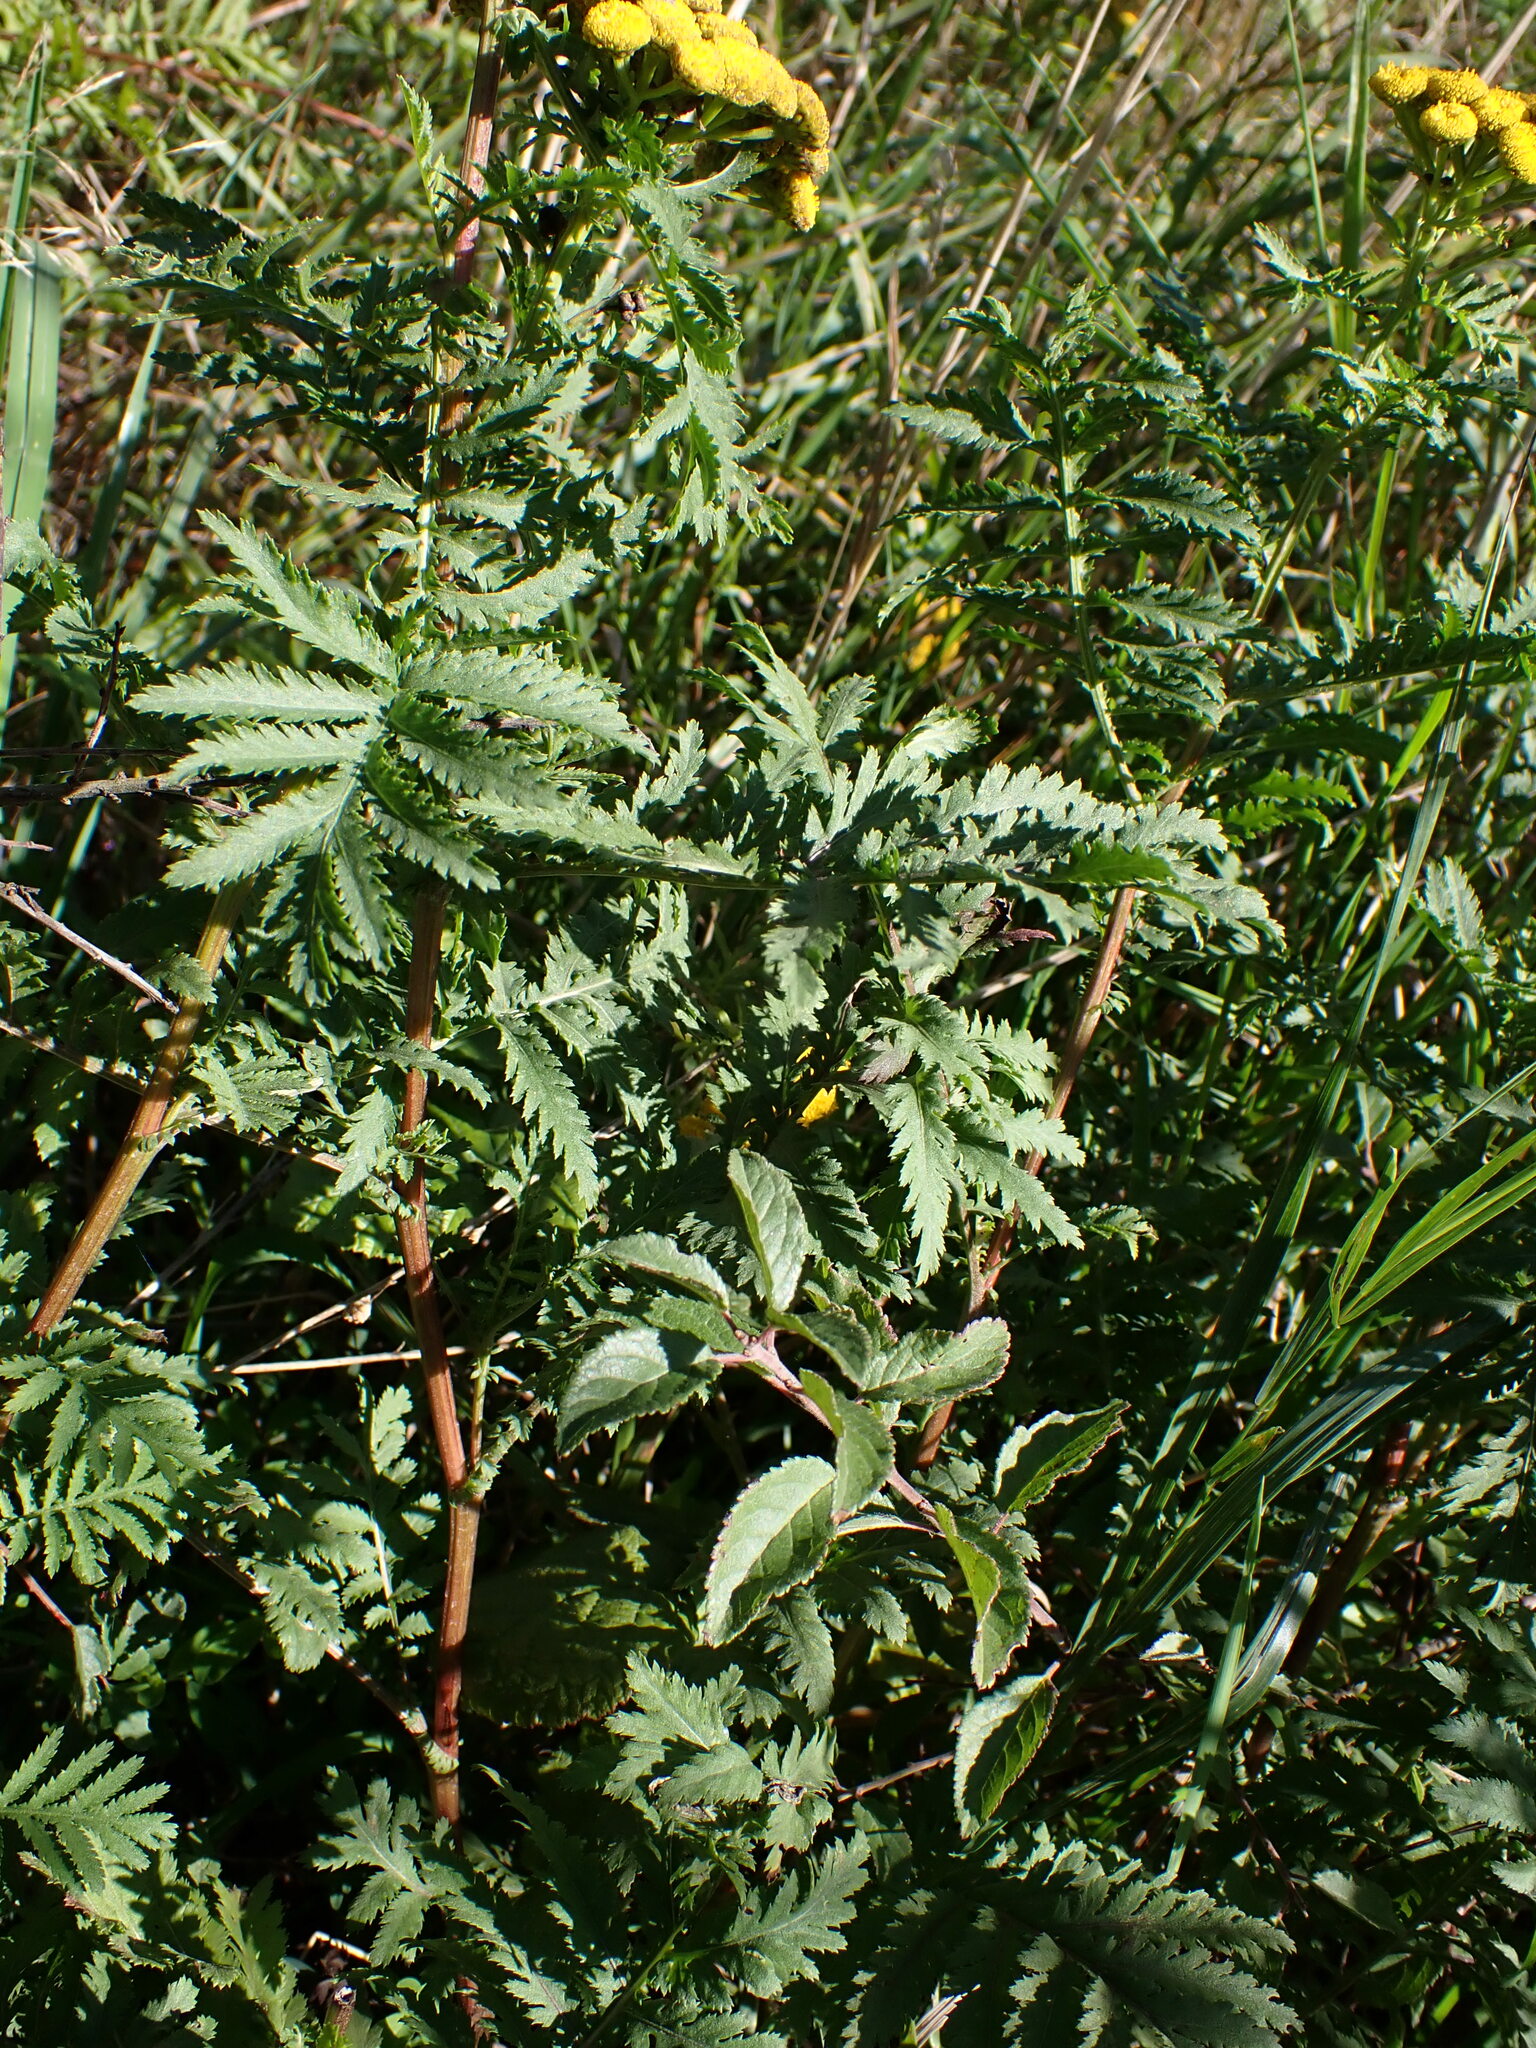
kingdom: Plantae
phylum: Tracheophyta
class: Magnoliopsida
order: Asterales
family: Asteraceae
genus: Tanacetum
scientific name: Tanacetum vulgare
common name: Common tansy
